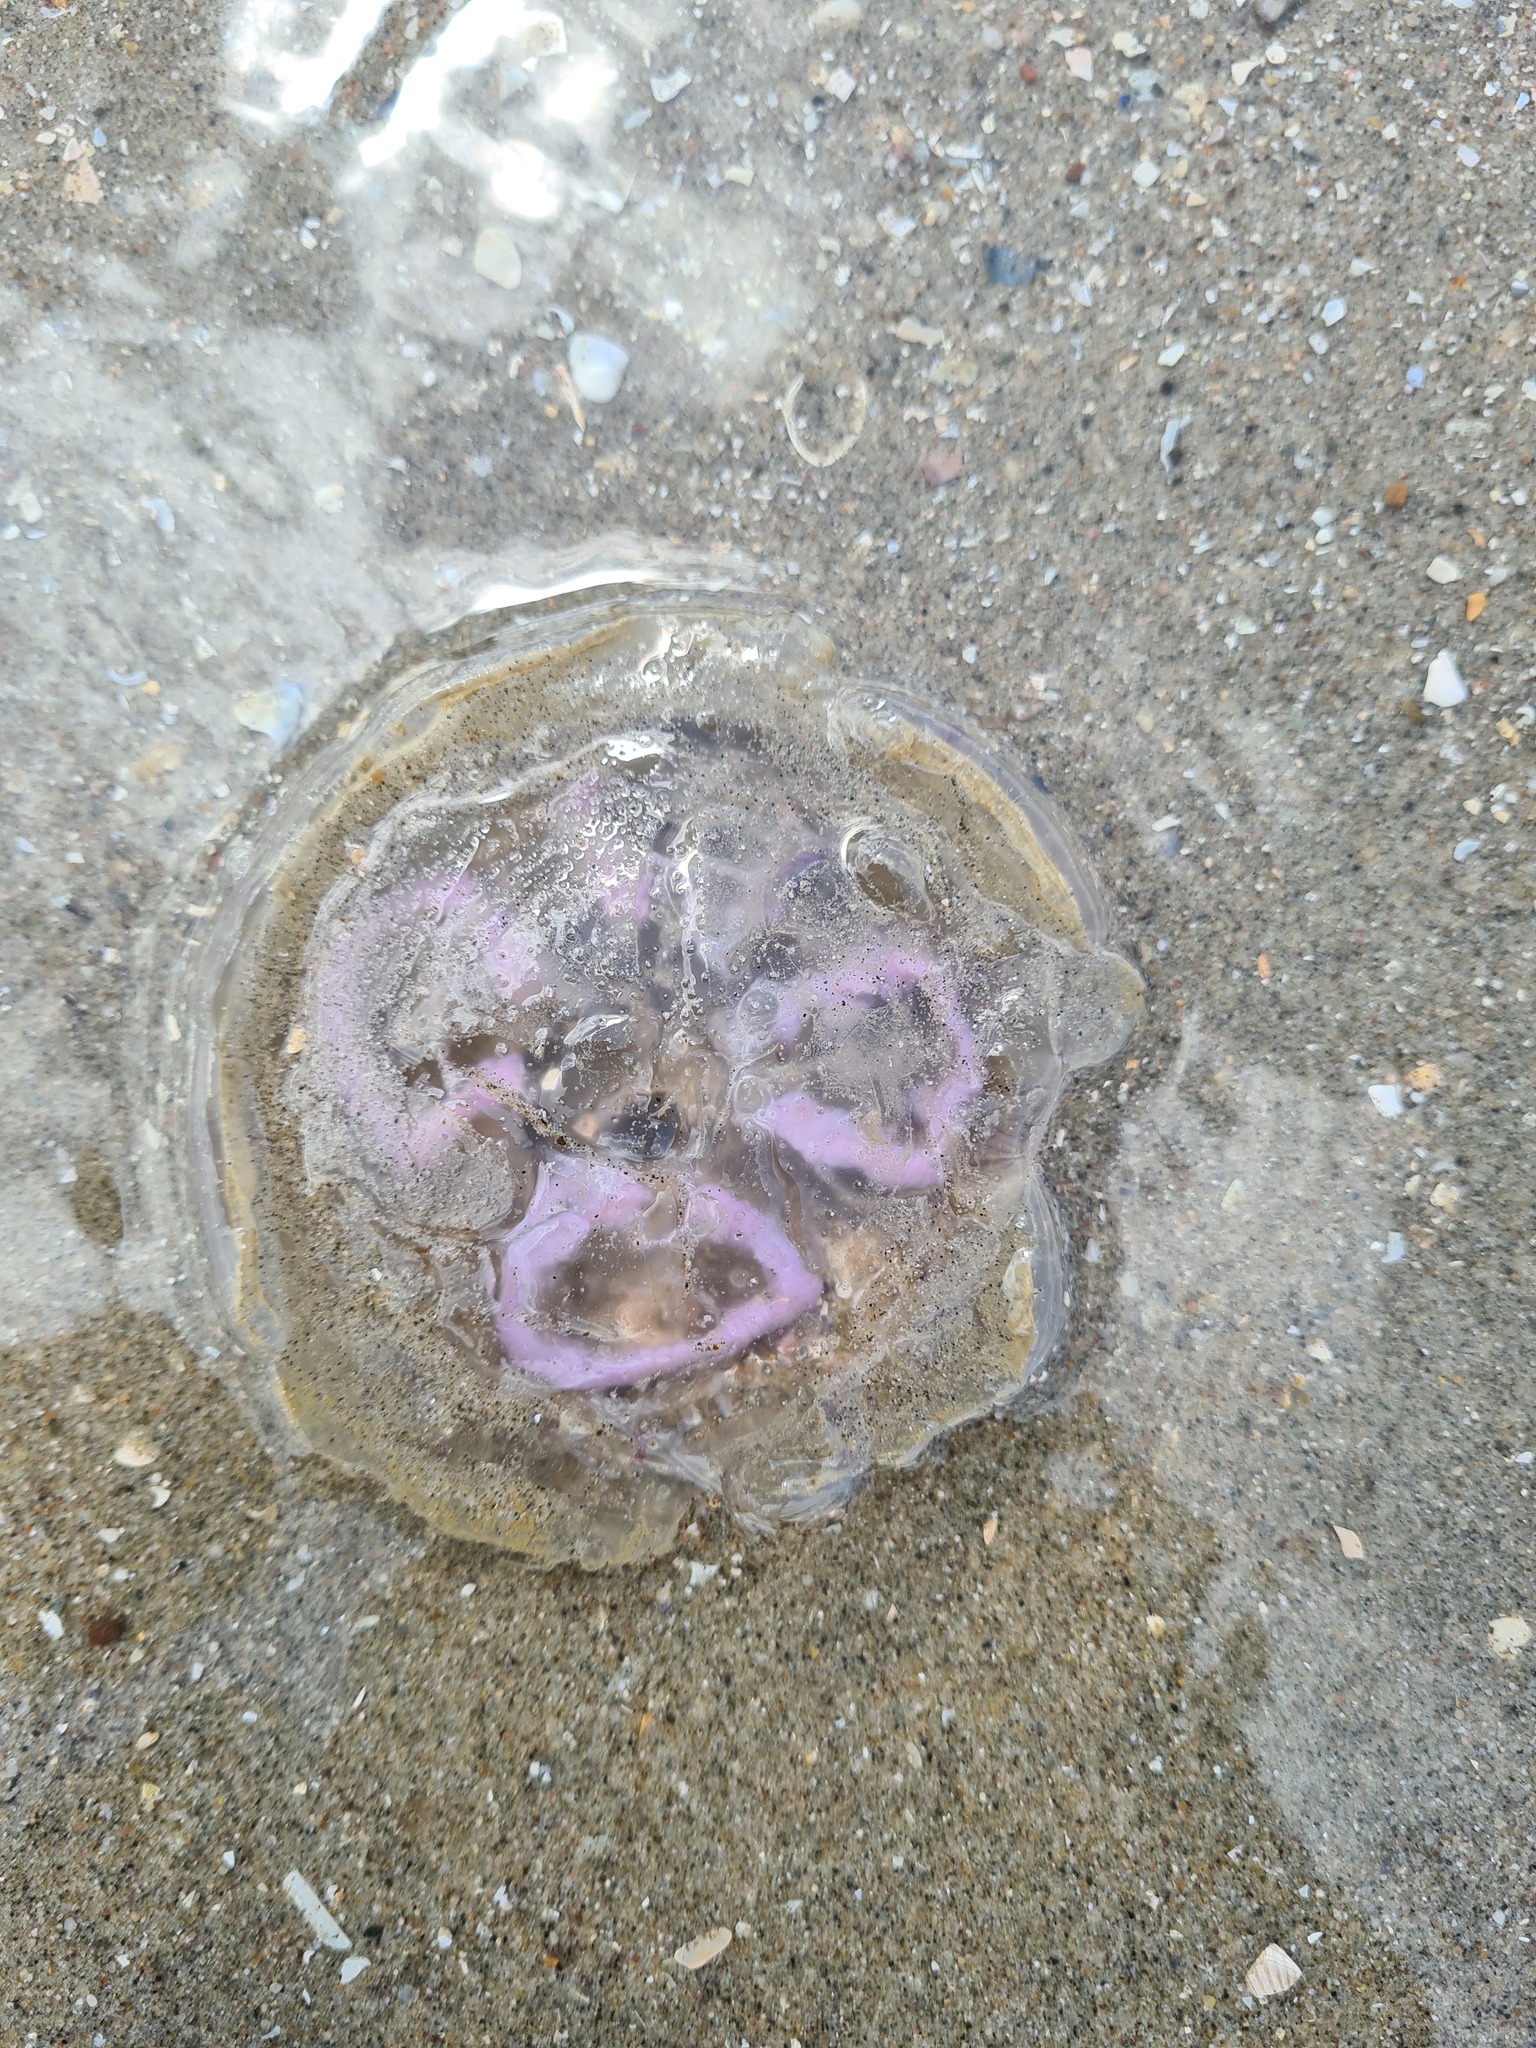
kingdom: Animalia
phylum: Cnidaria
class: Scyphozoa
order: Semaeostomeae
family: Ulmaridae
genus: Aurelia
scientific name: Aurelia aurita
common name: Moon jellyfish
